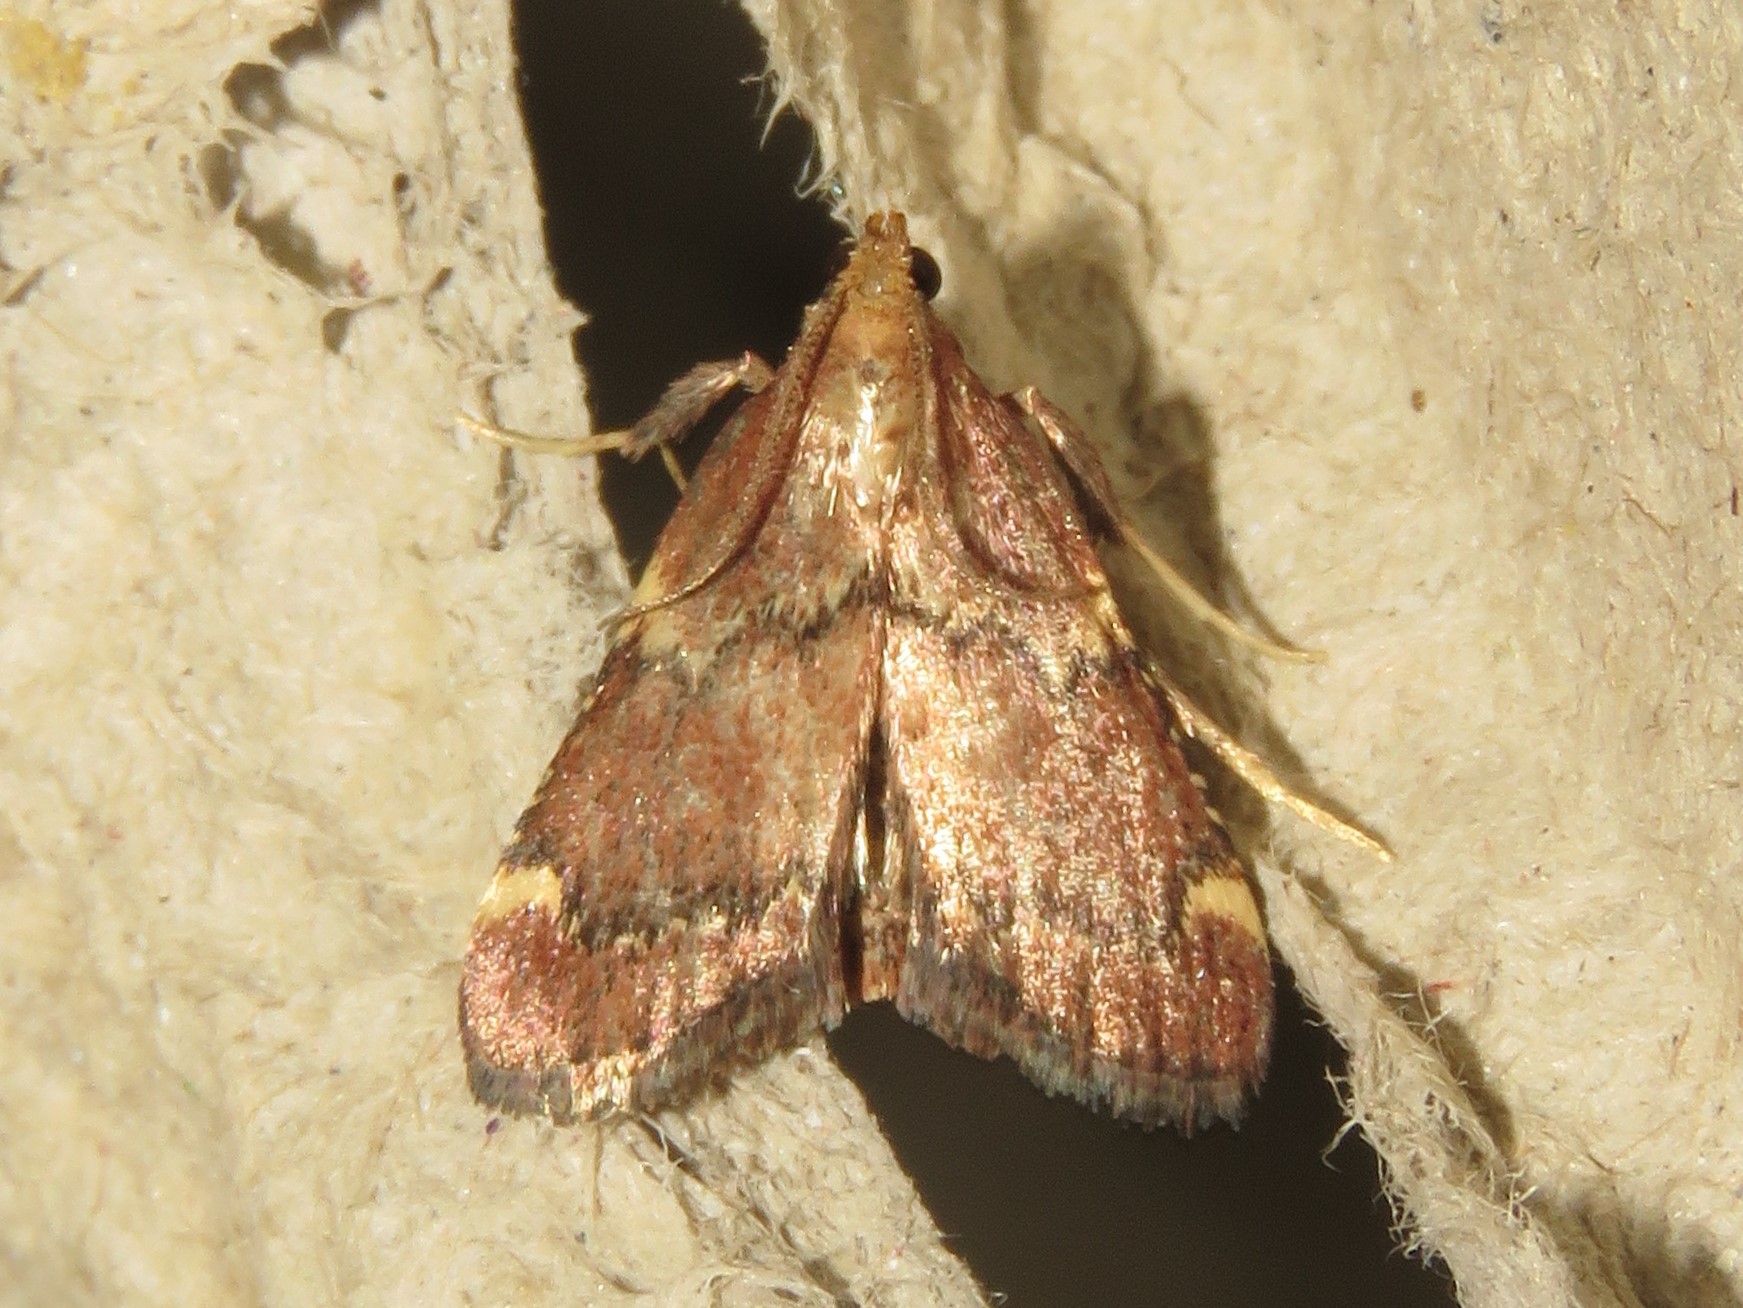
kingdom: Animalia
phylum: Arthropoda
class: Insecta
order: Lepidoptera
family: Pyralidae
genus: Hypsopygia
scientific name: Hypsopygia intermedialis
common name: Red-shawled moth
